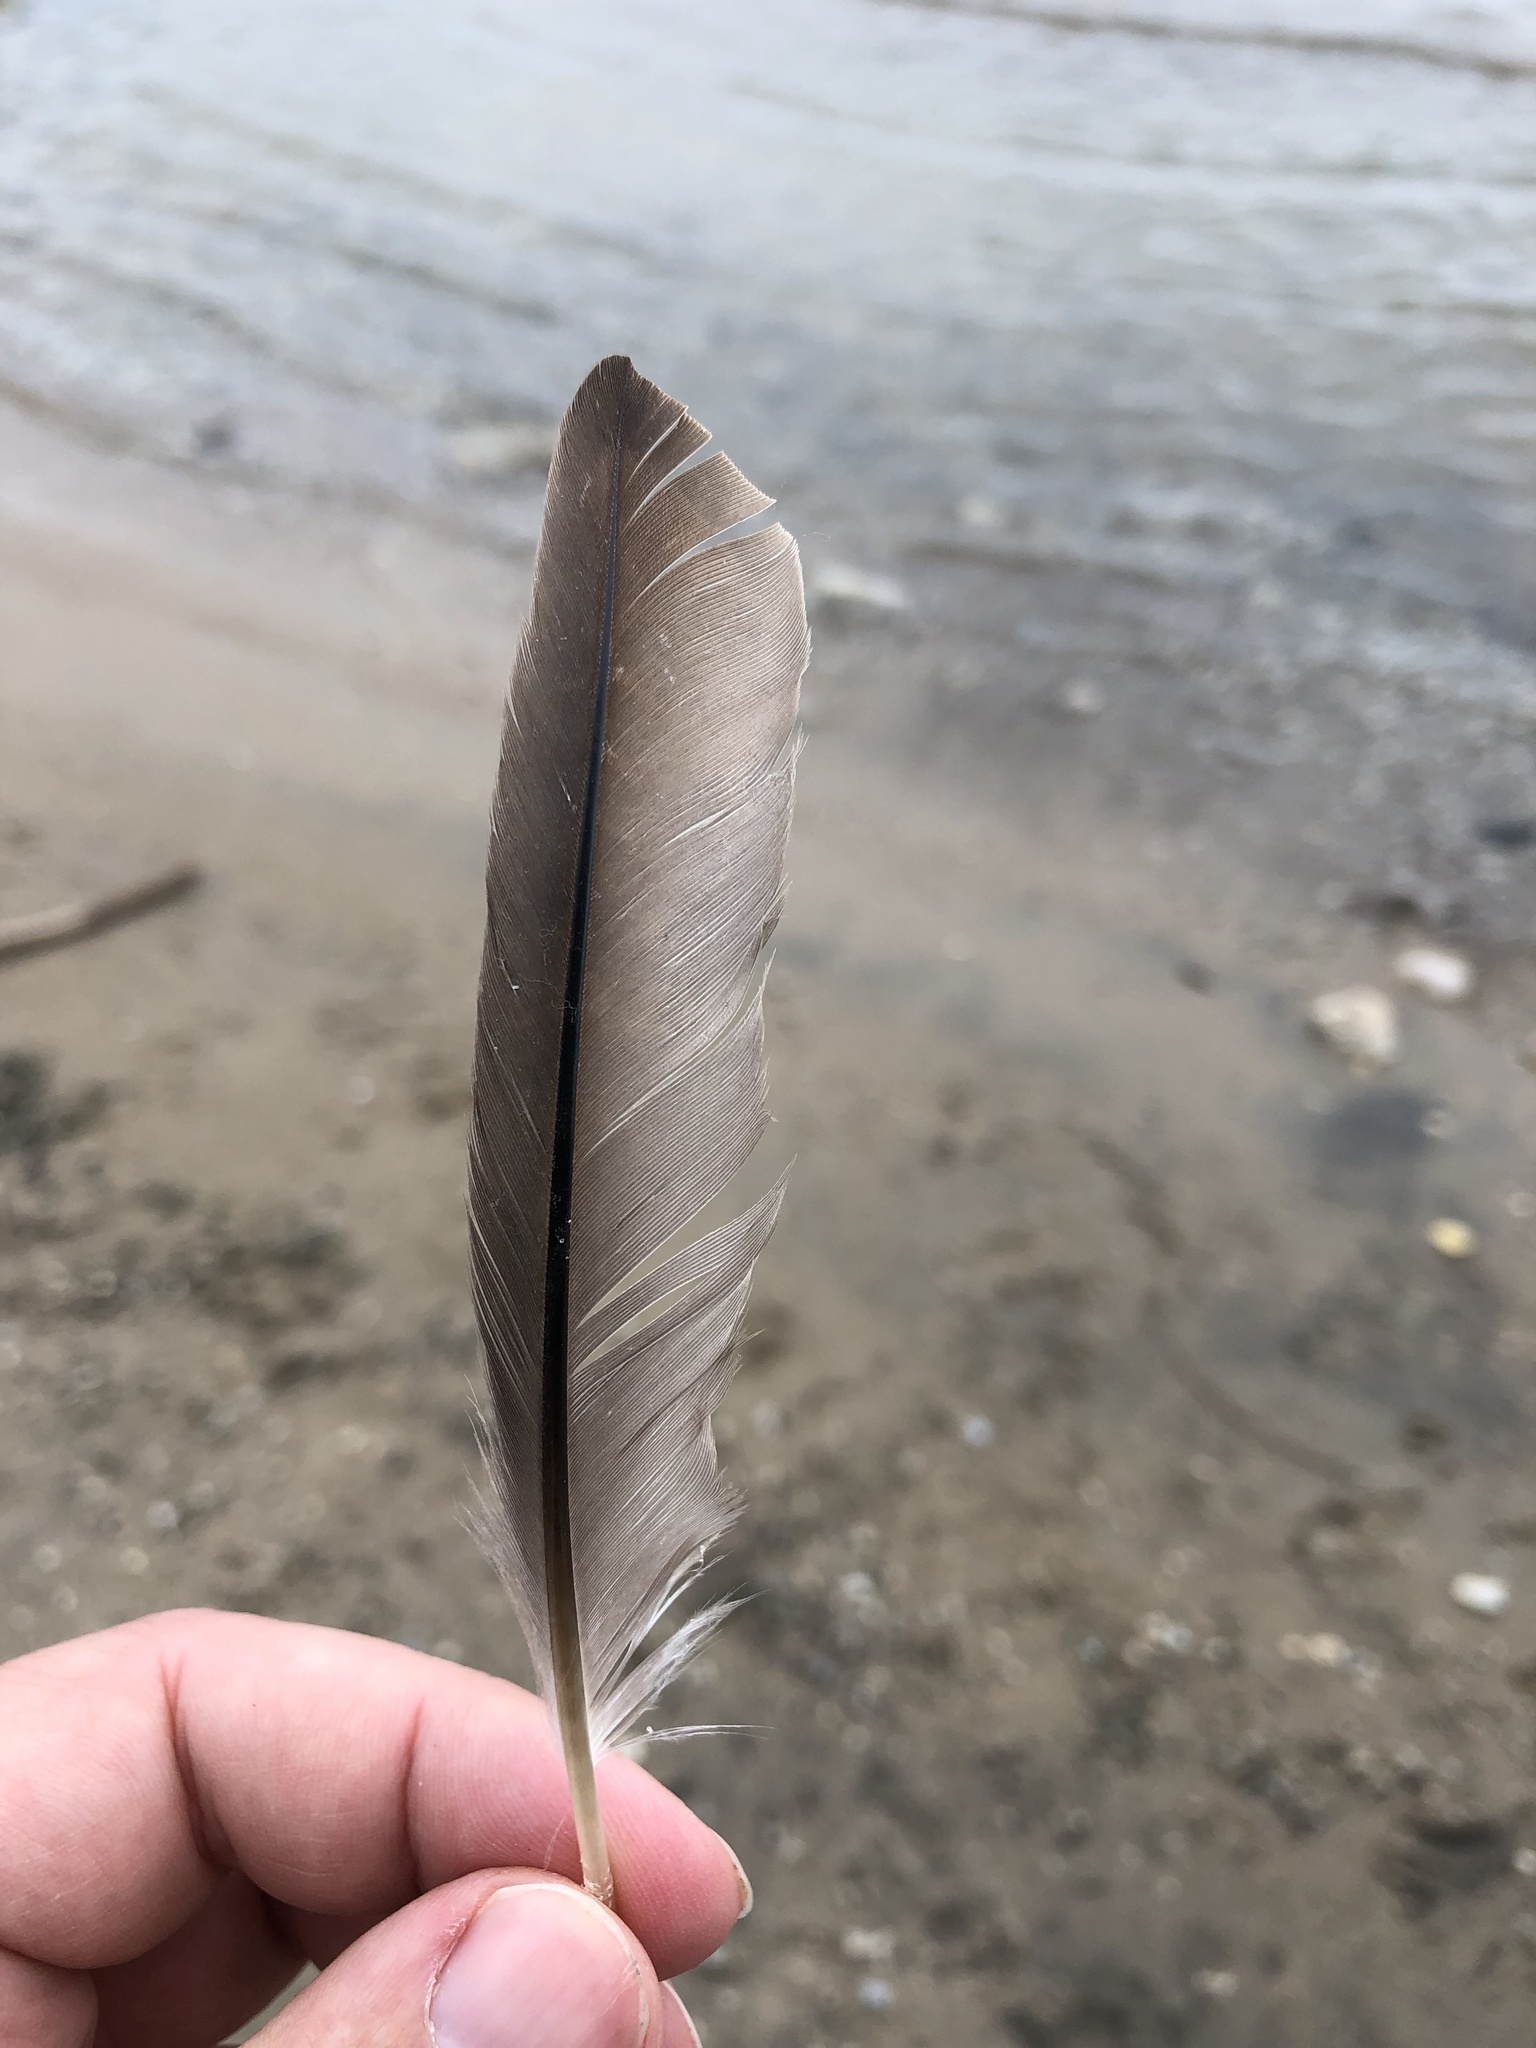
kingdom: Animalia
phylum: Chordata
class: Aves
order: Podicipediformes
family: Podicipedidae
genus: Podilymbus
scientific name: Podilymbus podiceps
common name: Pied-billed grebe
